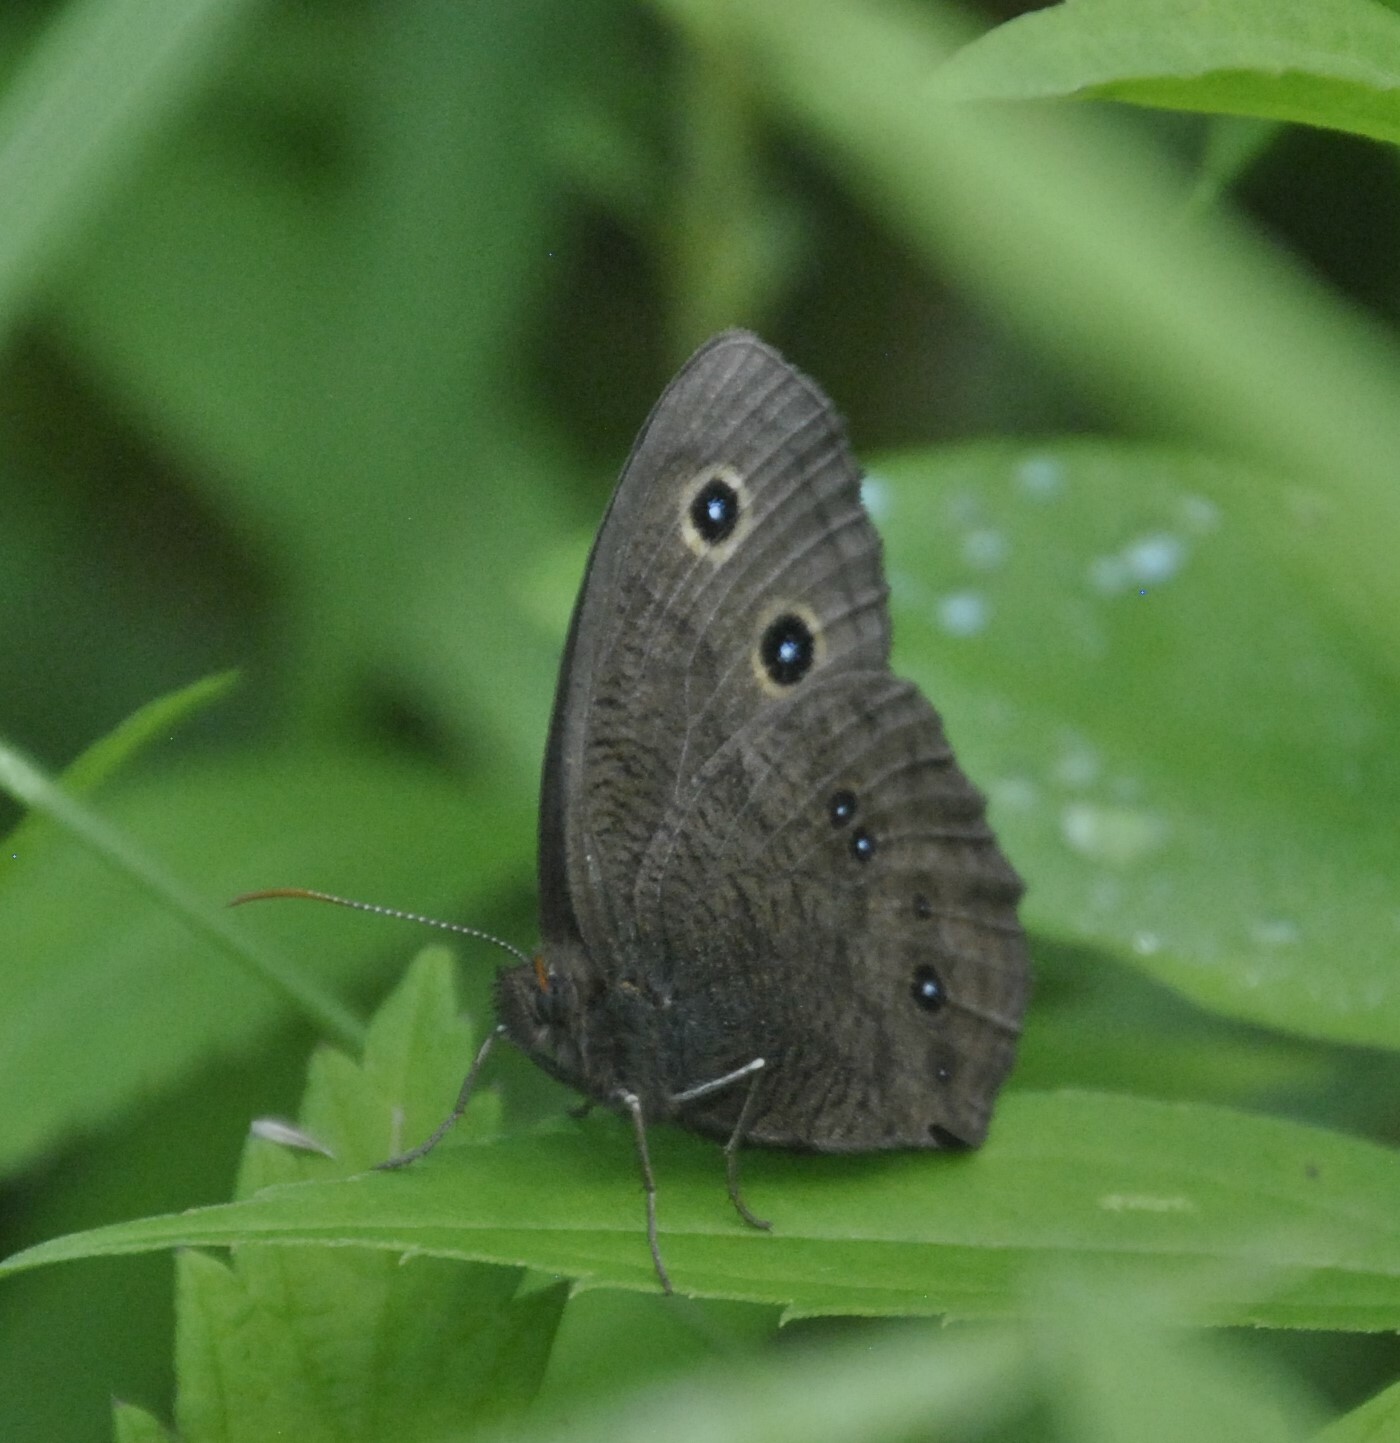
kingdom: Animalia
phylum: Arthropoda
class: Insecta
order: Lepidoptera
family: Nymphalidae
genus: Cercyonis
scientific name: Cercyonis pegala
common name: Common wood-nymph
